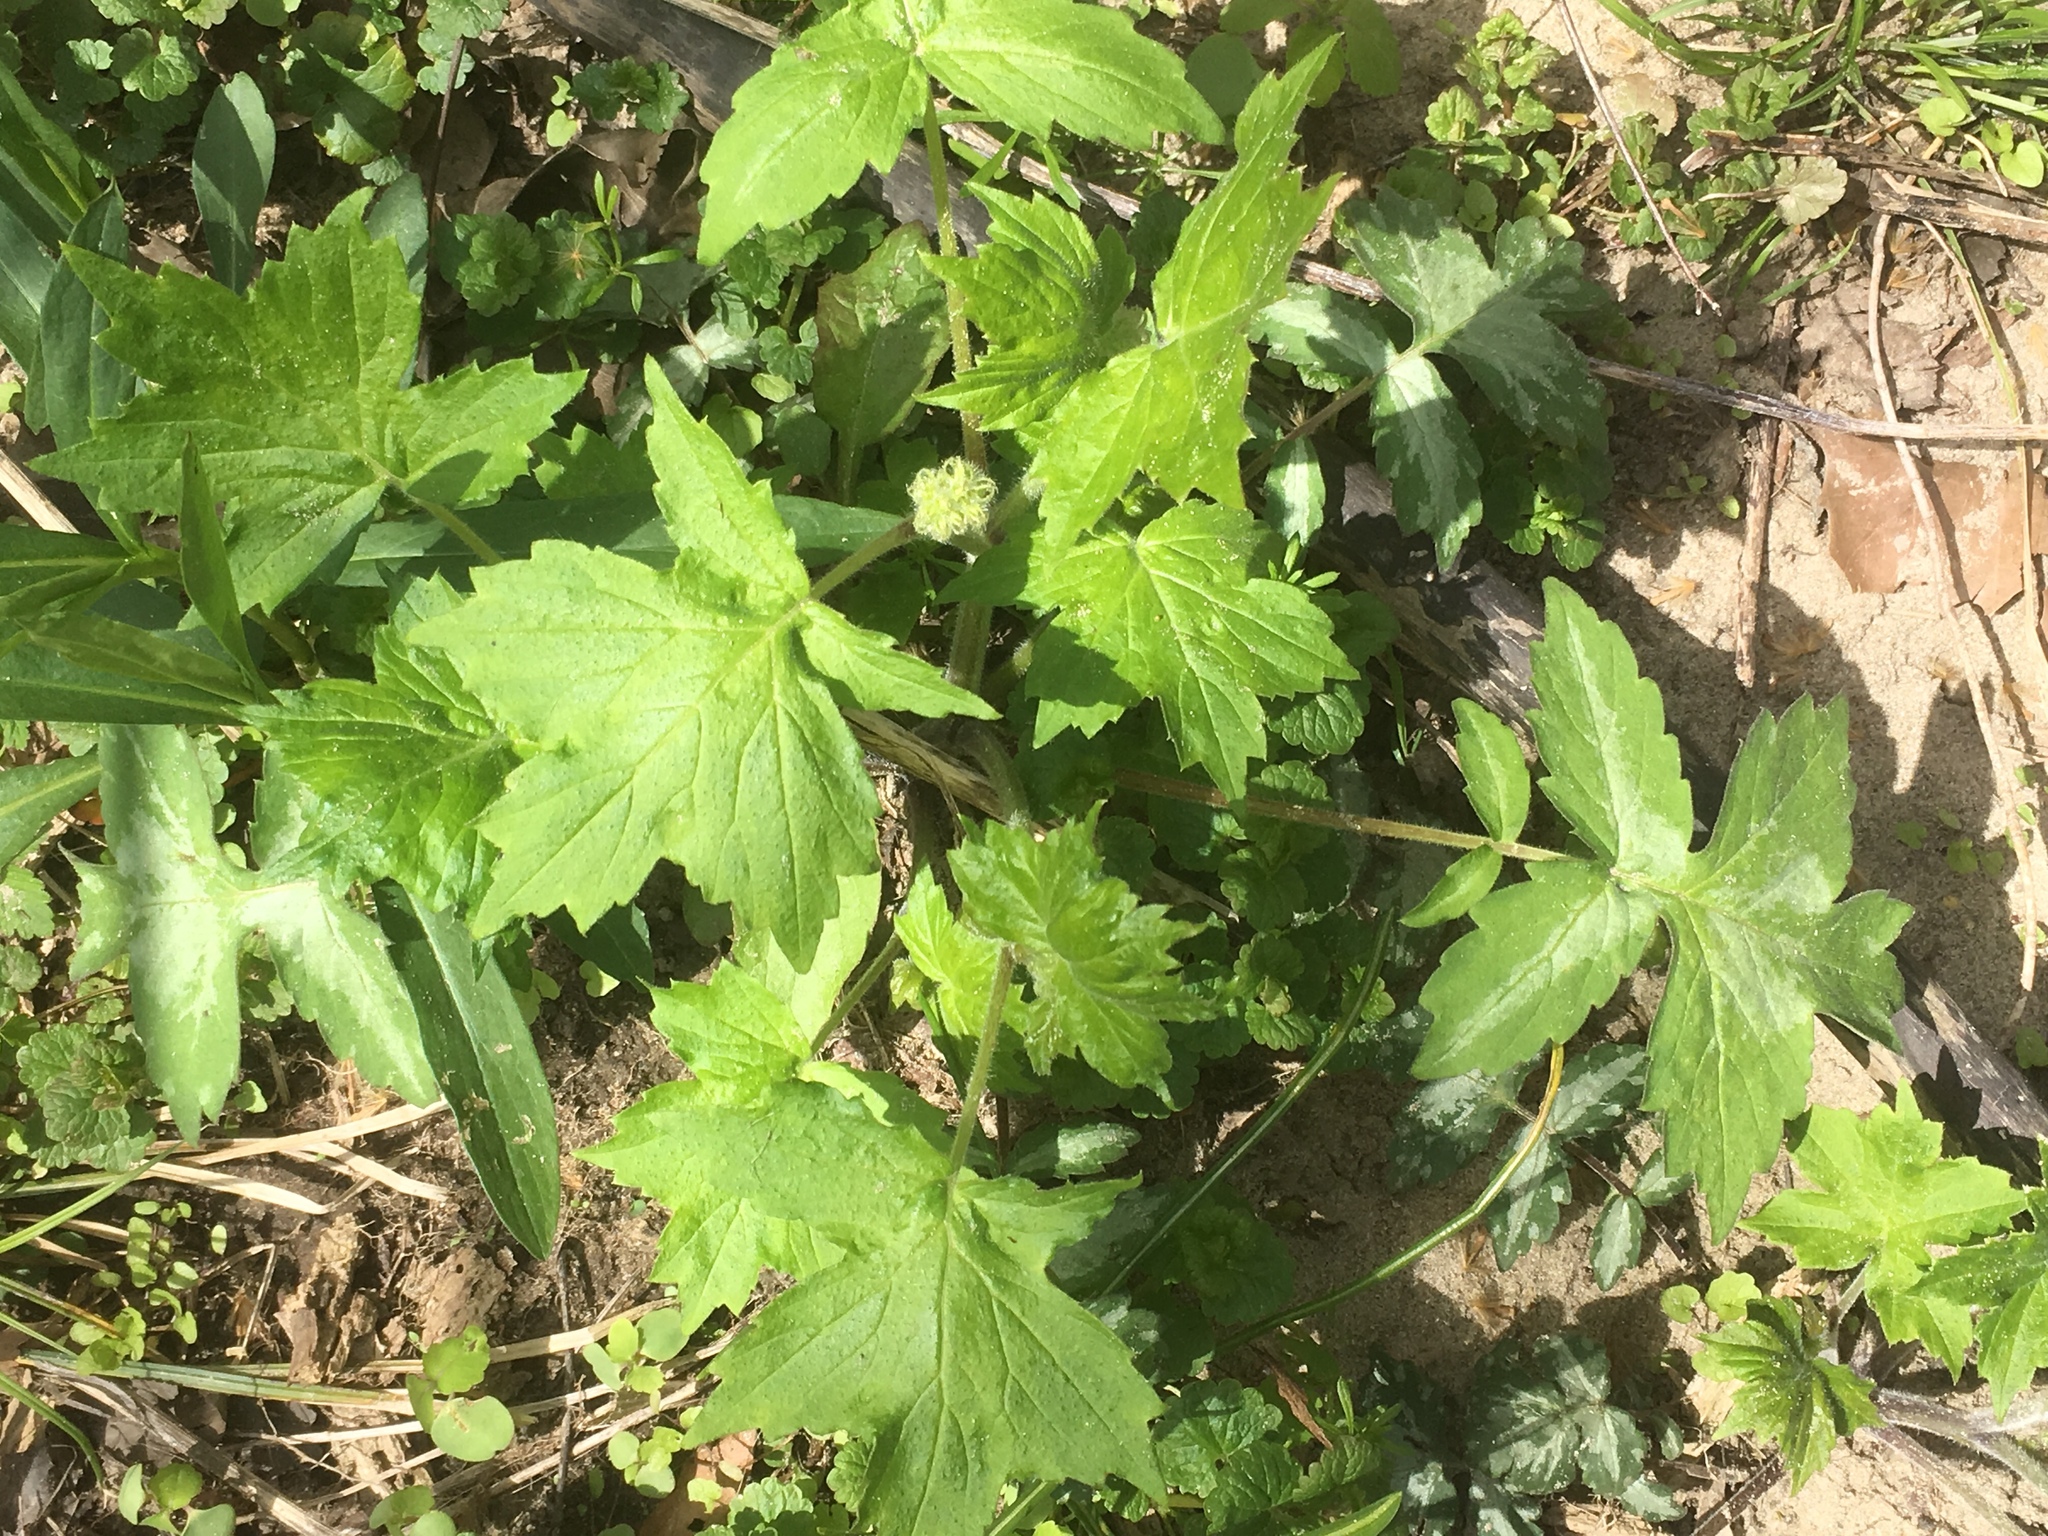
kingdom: Plantae
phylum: Tracheophyta
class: Magnoliopsida
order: Boraginales
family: Hydrophyllaceae
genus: Hydrophyllum
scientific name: Hydrophyllum appendiculatum
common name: Appendaged waterleaf
